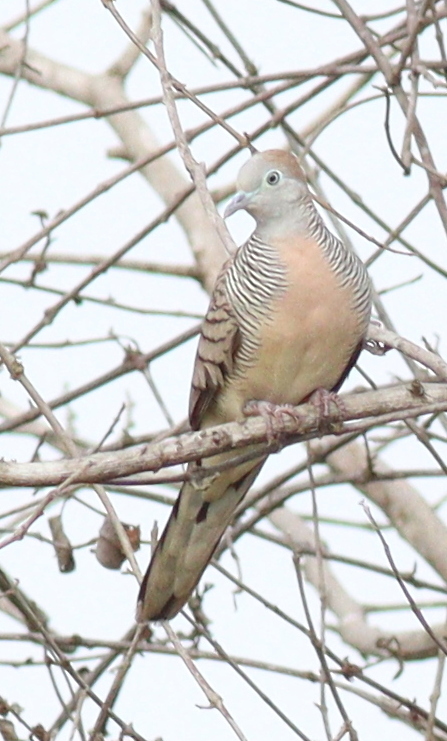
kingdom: Animalia
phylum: Chordata
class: Aves
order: Columbiformes
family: Columbidae
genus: Geopelia
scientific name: Geopelia striata
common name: Zebra dove
